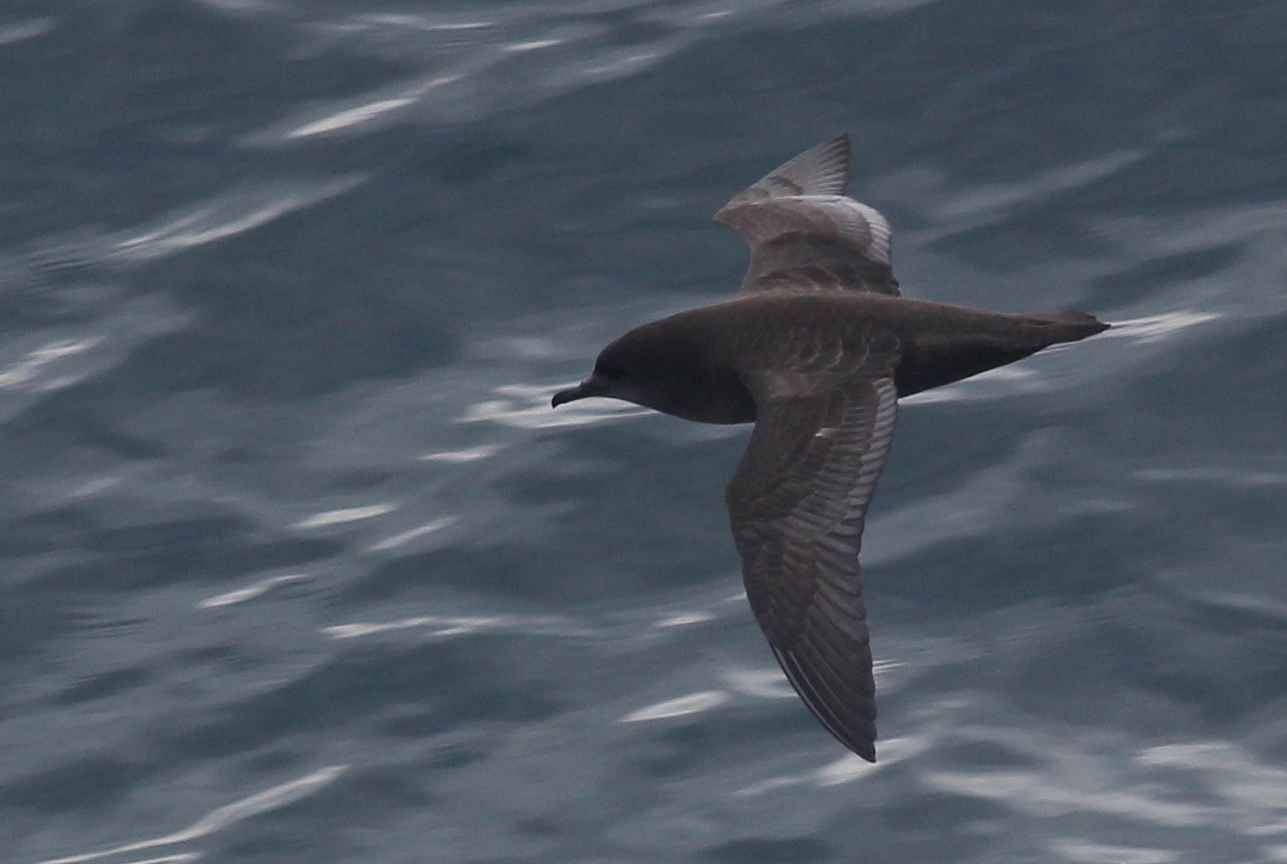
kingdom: Animalia
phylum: Chordata
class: Aves
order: Procellariiformes
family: Procellariidae
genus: Puffinus
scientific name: Puffinus tenuirostris
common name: Short-tailed shearwater
